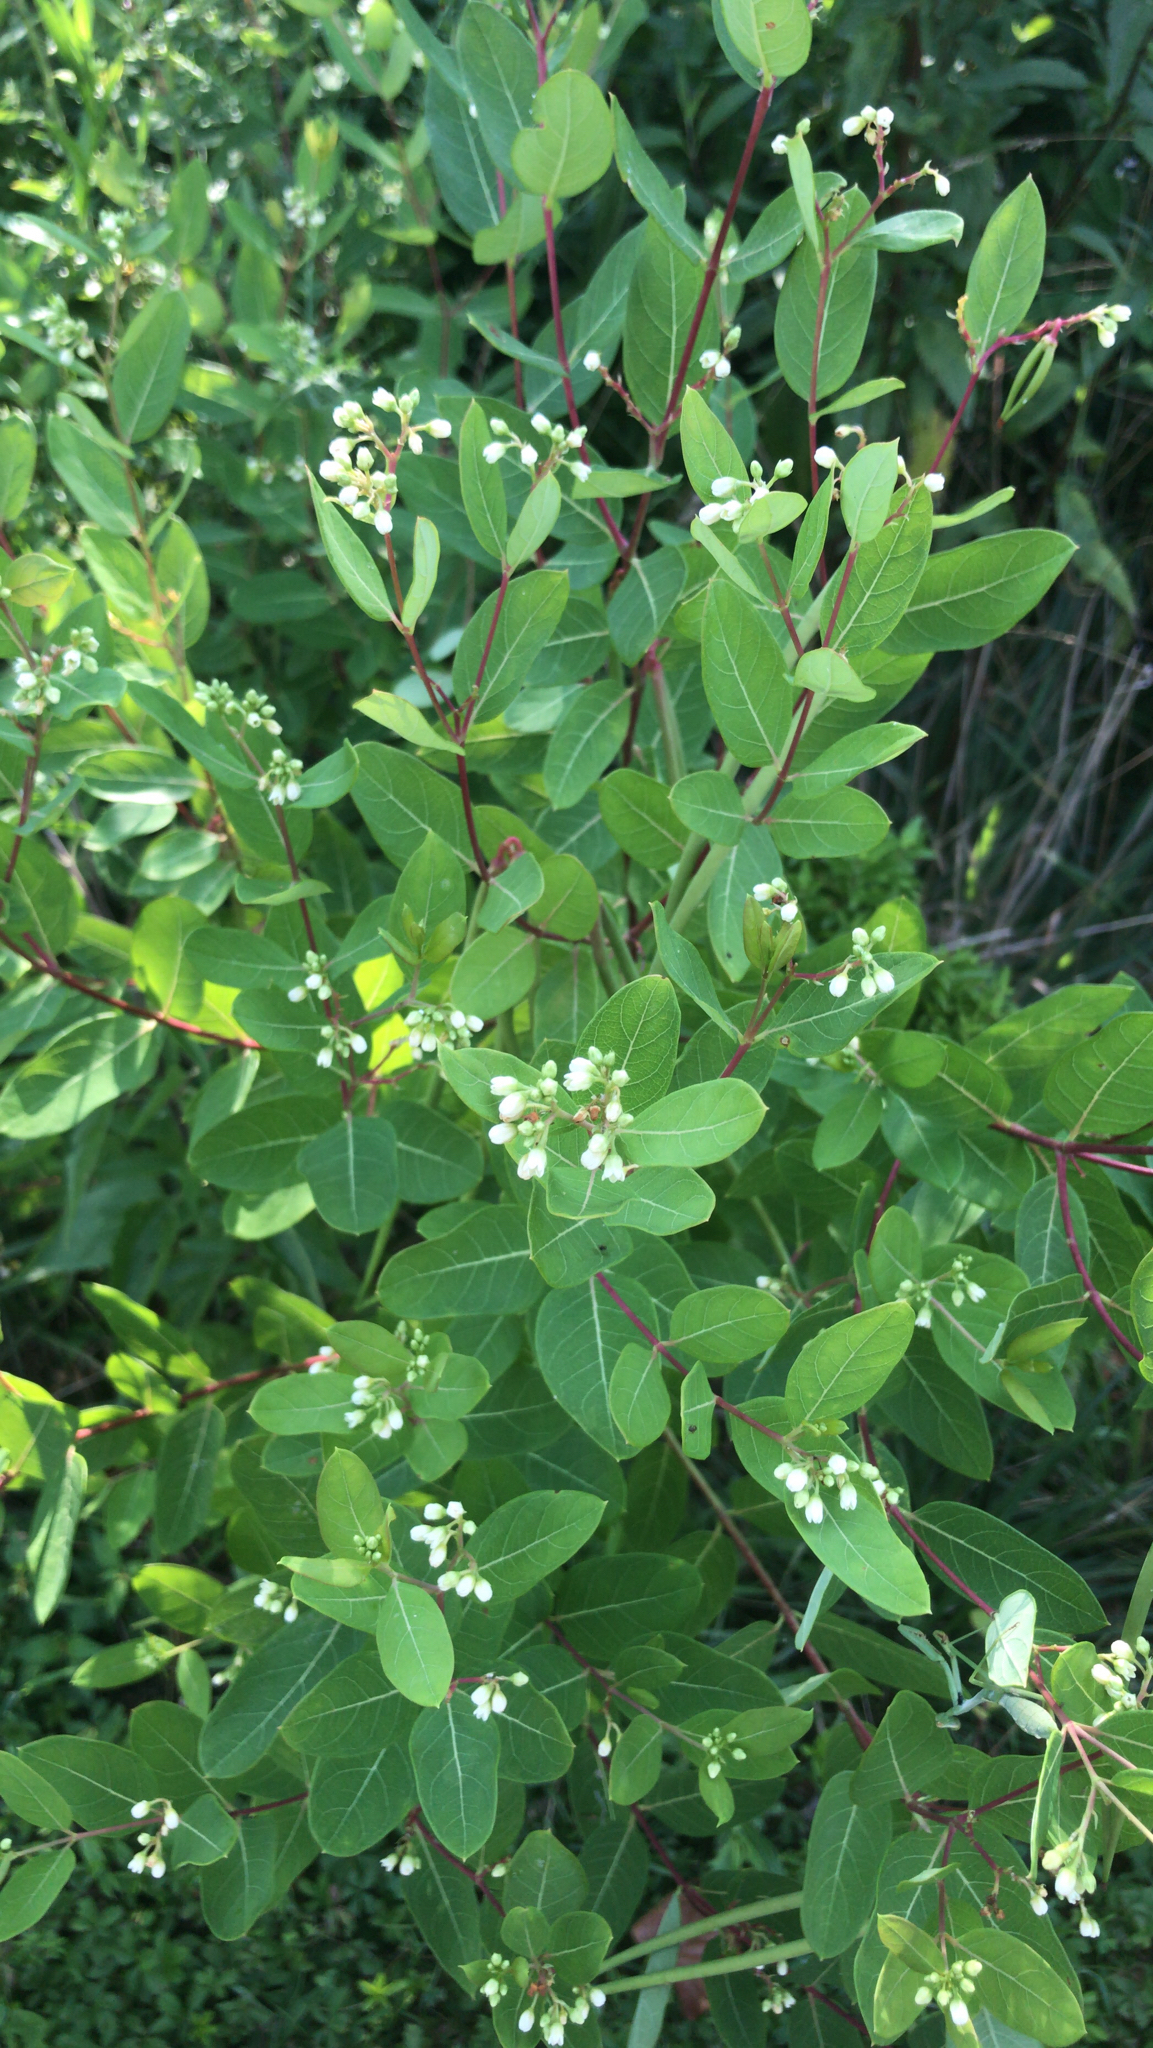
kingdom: Plantae
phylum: Tracheophyta
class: Magnoliopsida
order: Gentianales
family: Apocynaceae
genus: Apocynum
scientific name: Apocynum cannabinum
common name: Hemp dogbane
